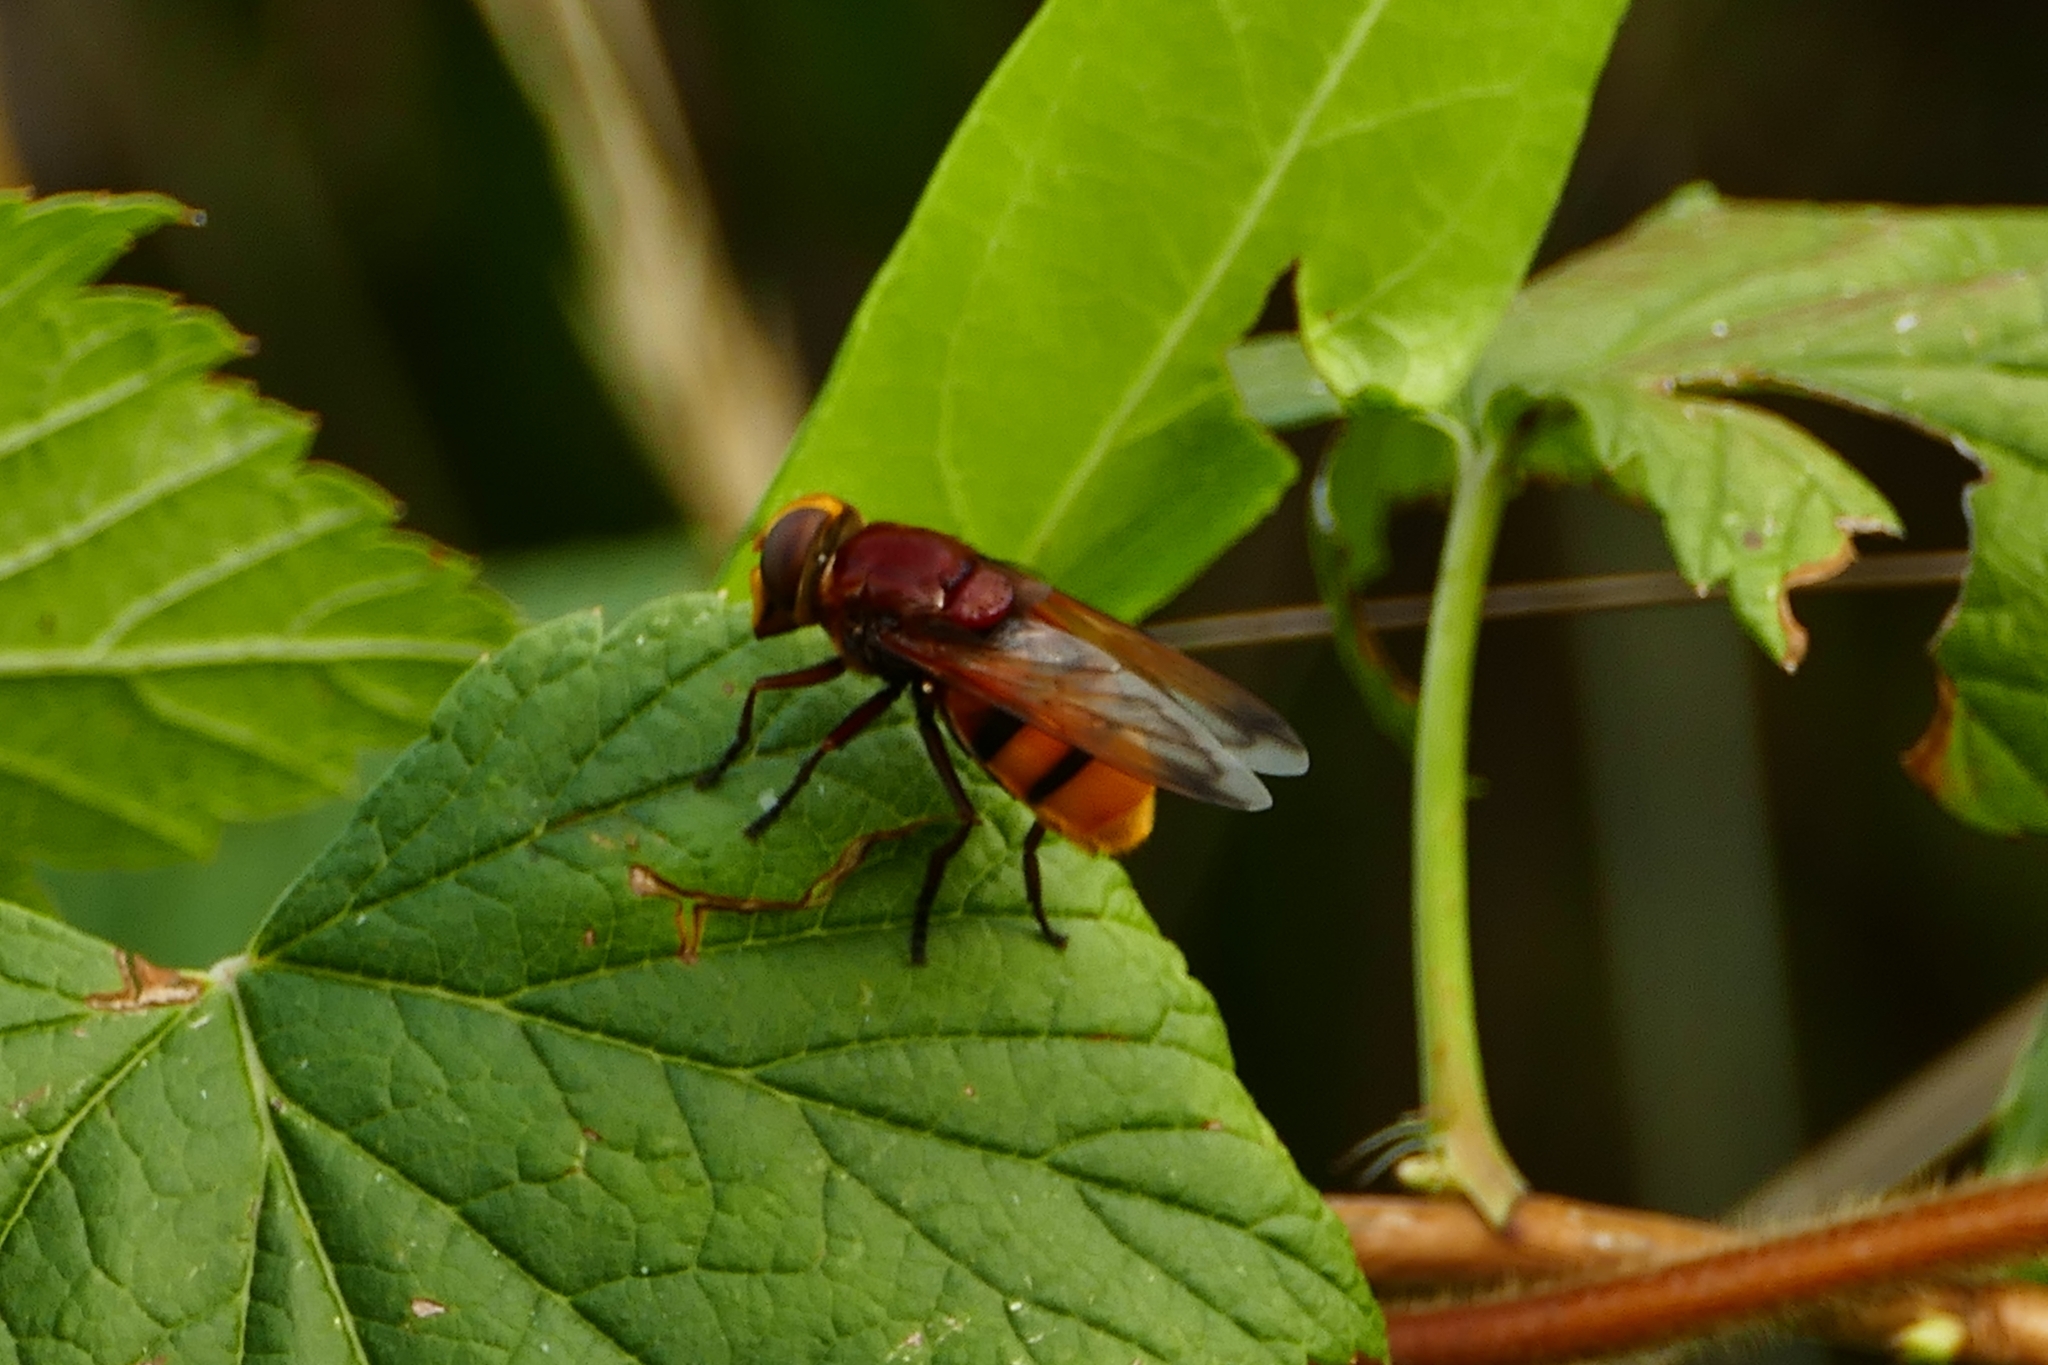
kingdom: Animalia
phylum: Arthropoda
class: Insecta
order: Diptera
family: Syrphidae
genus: Volucella
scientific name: Volucella zonaria
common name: Hornet hoverfly
